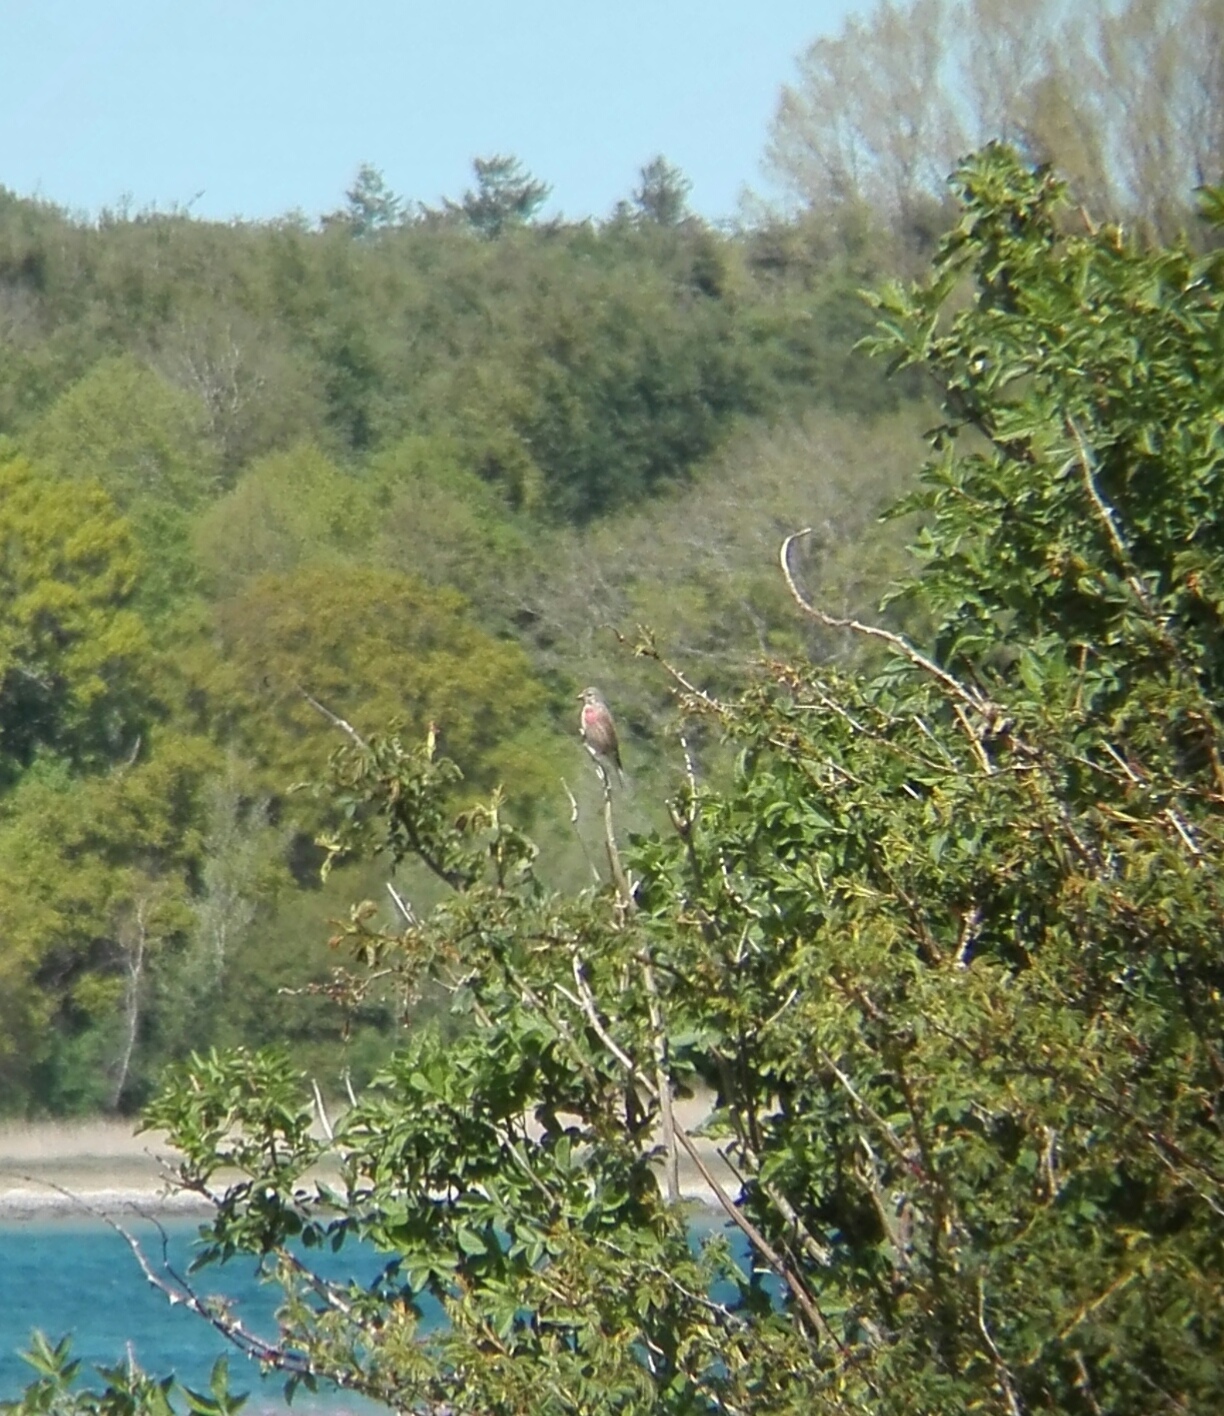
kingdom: Animalia
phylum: Chordata
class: Aves
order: Passeriformes
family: Fringillidae
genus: Linaria
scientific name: Linaria cannabina
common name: Common linnet
